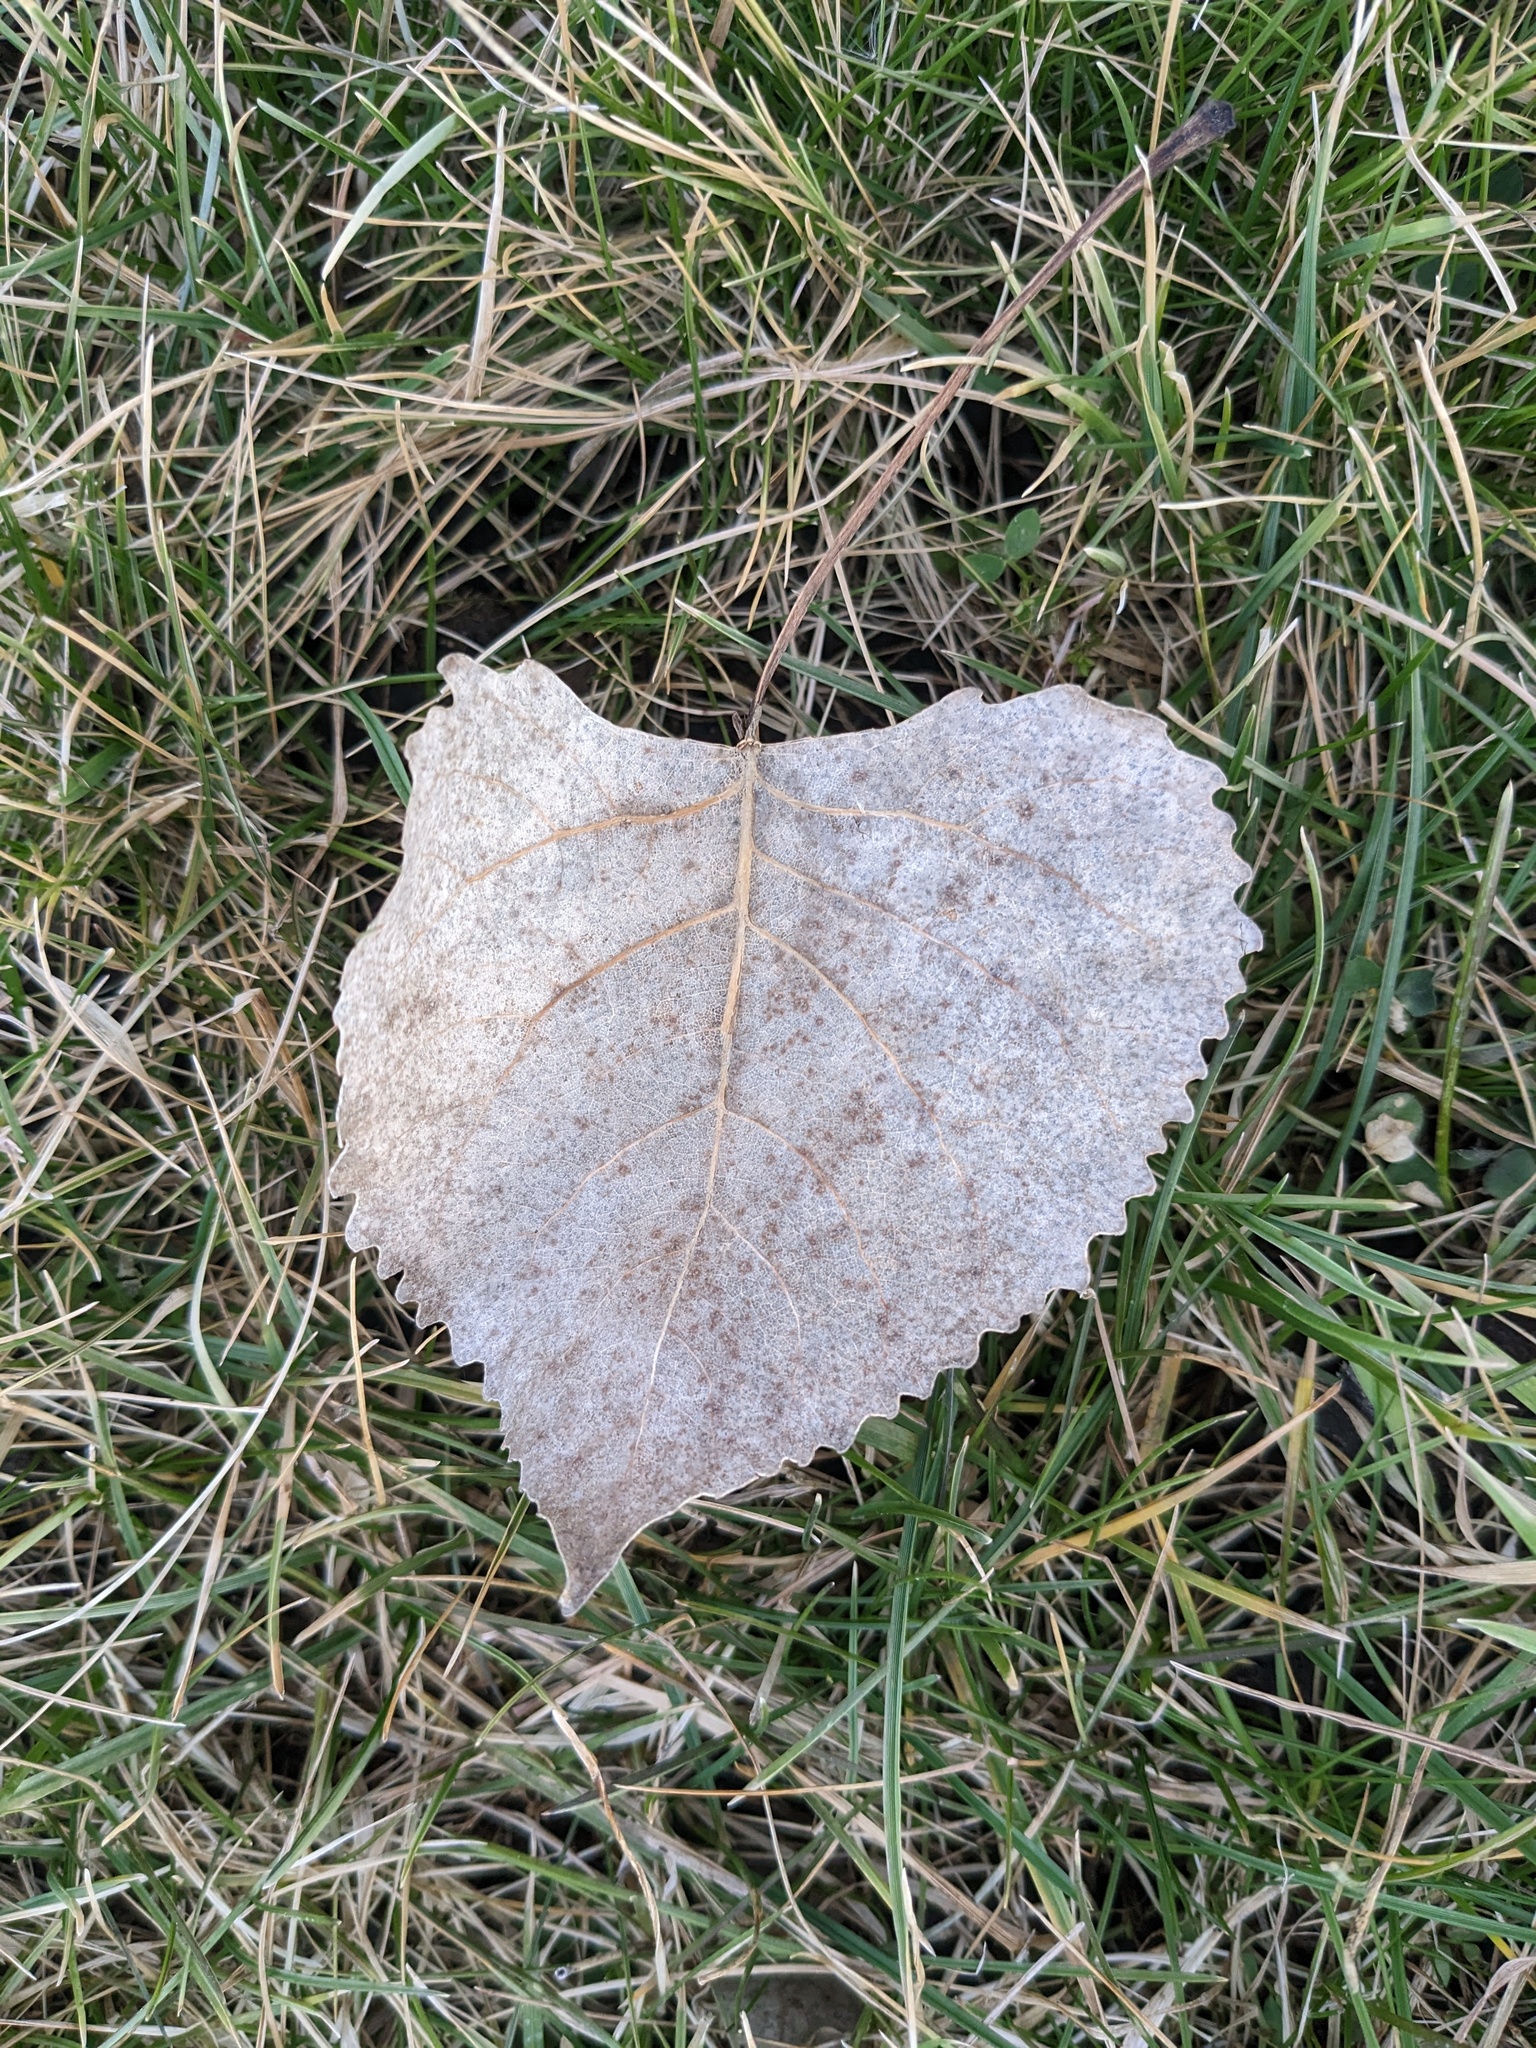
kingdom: Plantae
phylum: Tracheophyta
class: Magnoliopsida
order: Malpighiales
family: Salicaceae
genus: Populus
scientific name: Populus deltoides
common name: Eastern cottonwood
